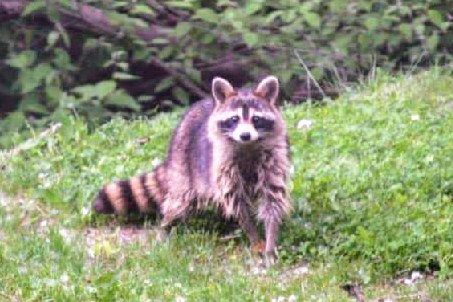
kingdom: Animalia
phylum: Chordata
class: Mammalia
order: Carnivora
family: Procyonidae
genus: Procyon
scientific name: Procyon lotor
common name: Raccoon
